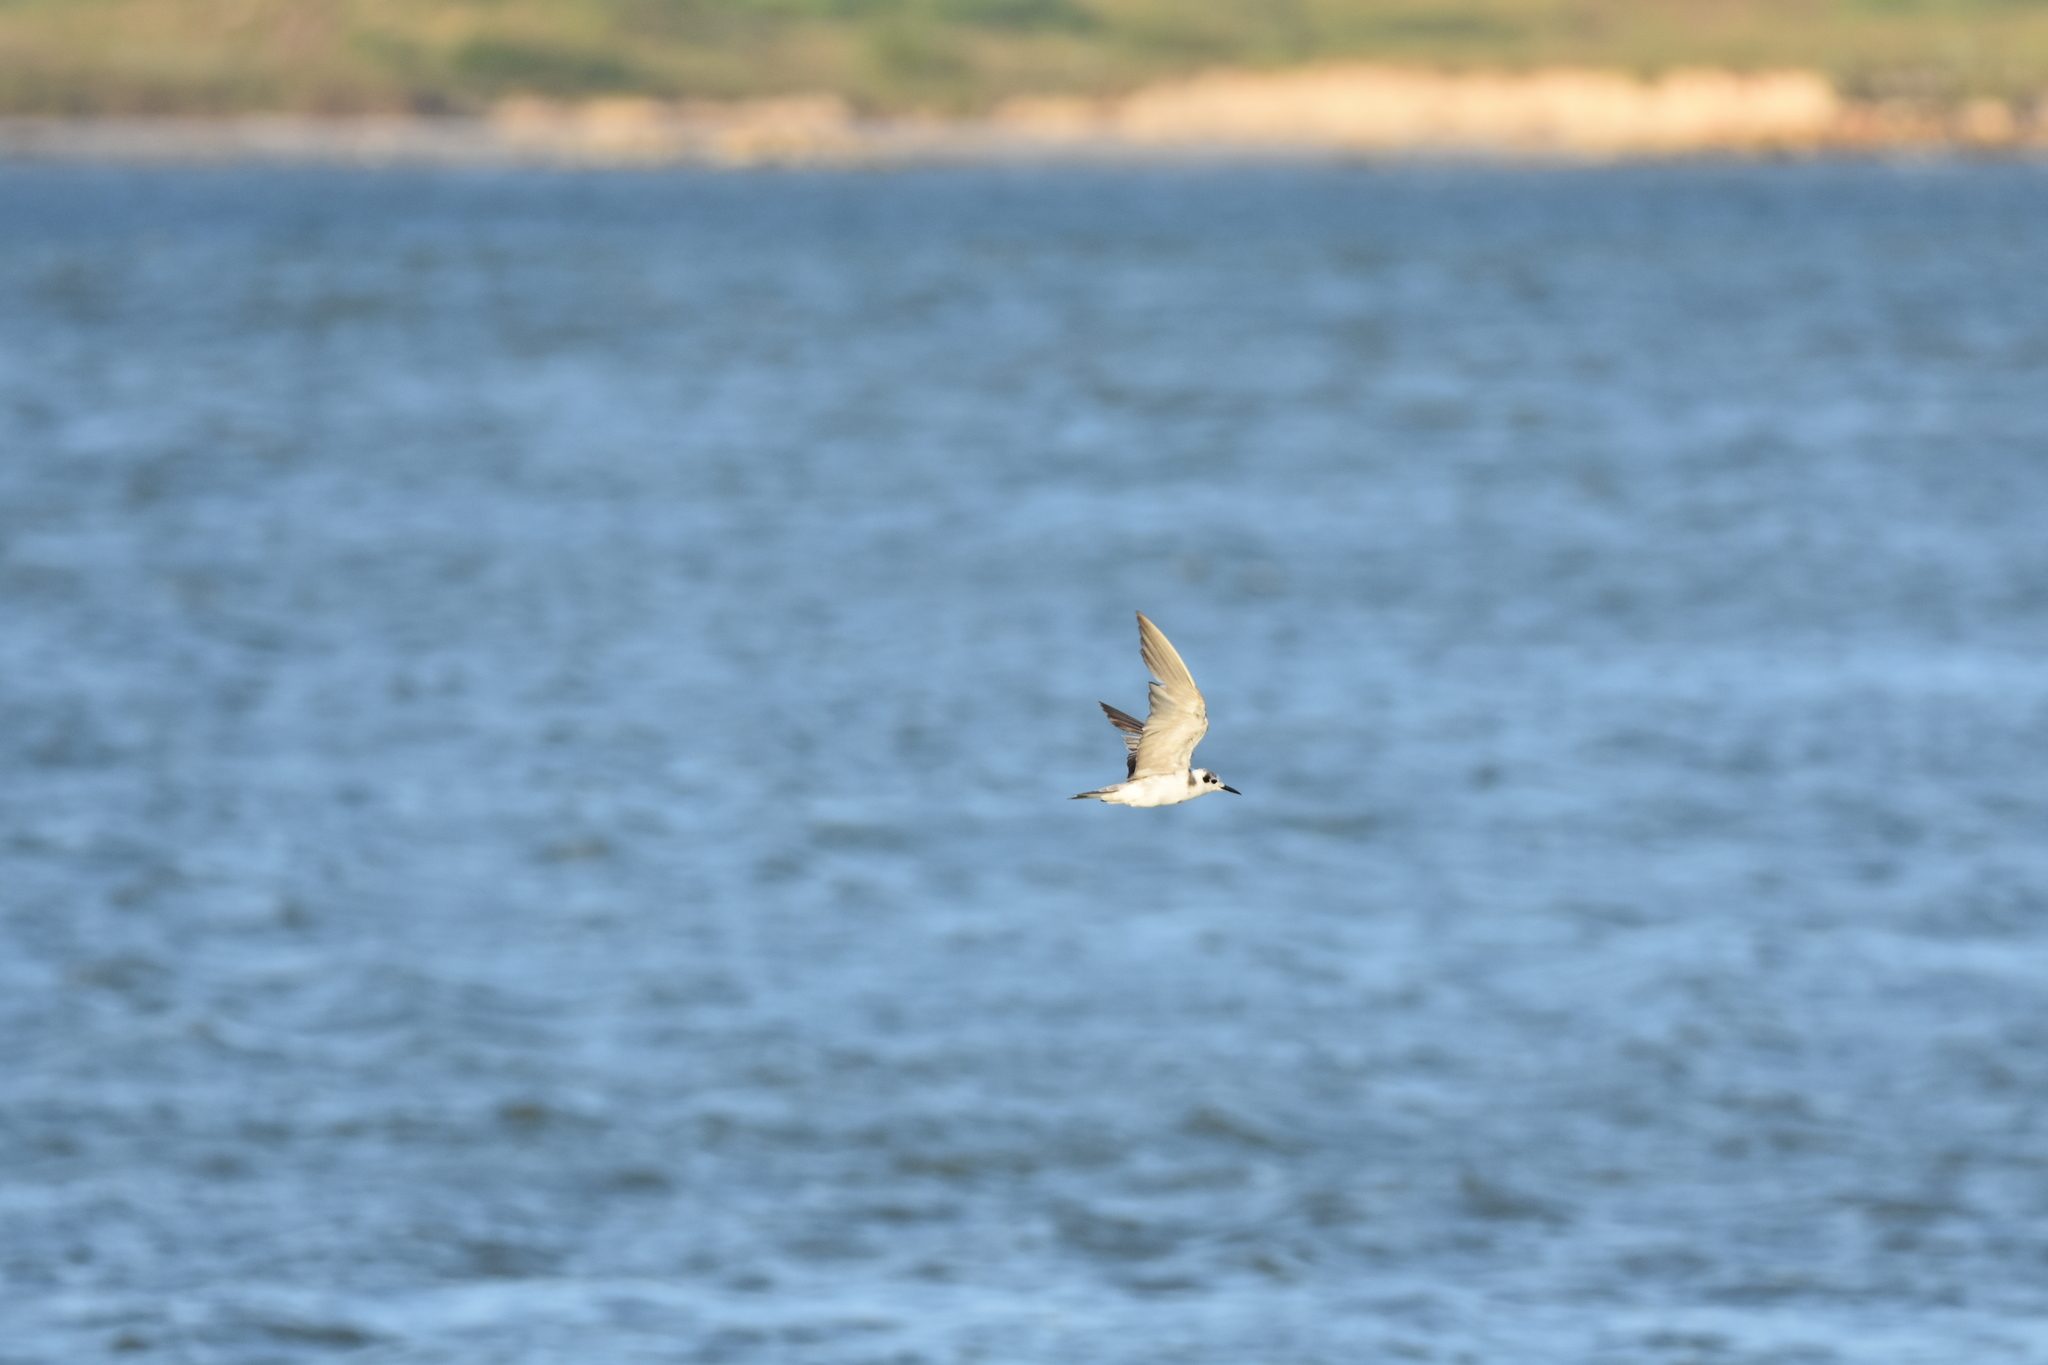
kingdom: Animalia
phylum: Chordata
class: Aves
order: Charadriiformes
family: Laridae
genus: Chlidonias
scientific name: Chlidonias niger
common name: Black tern
